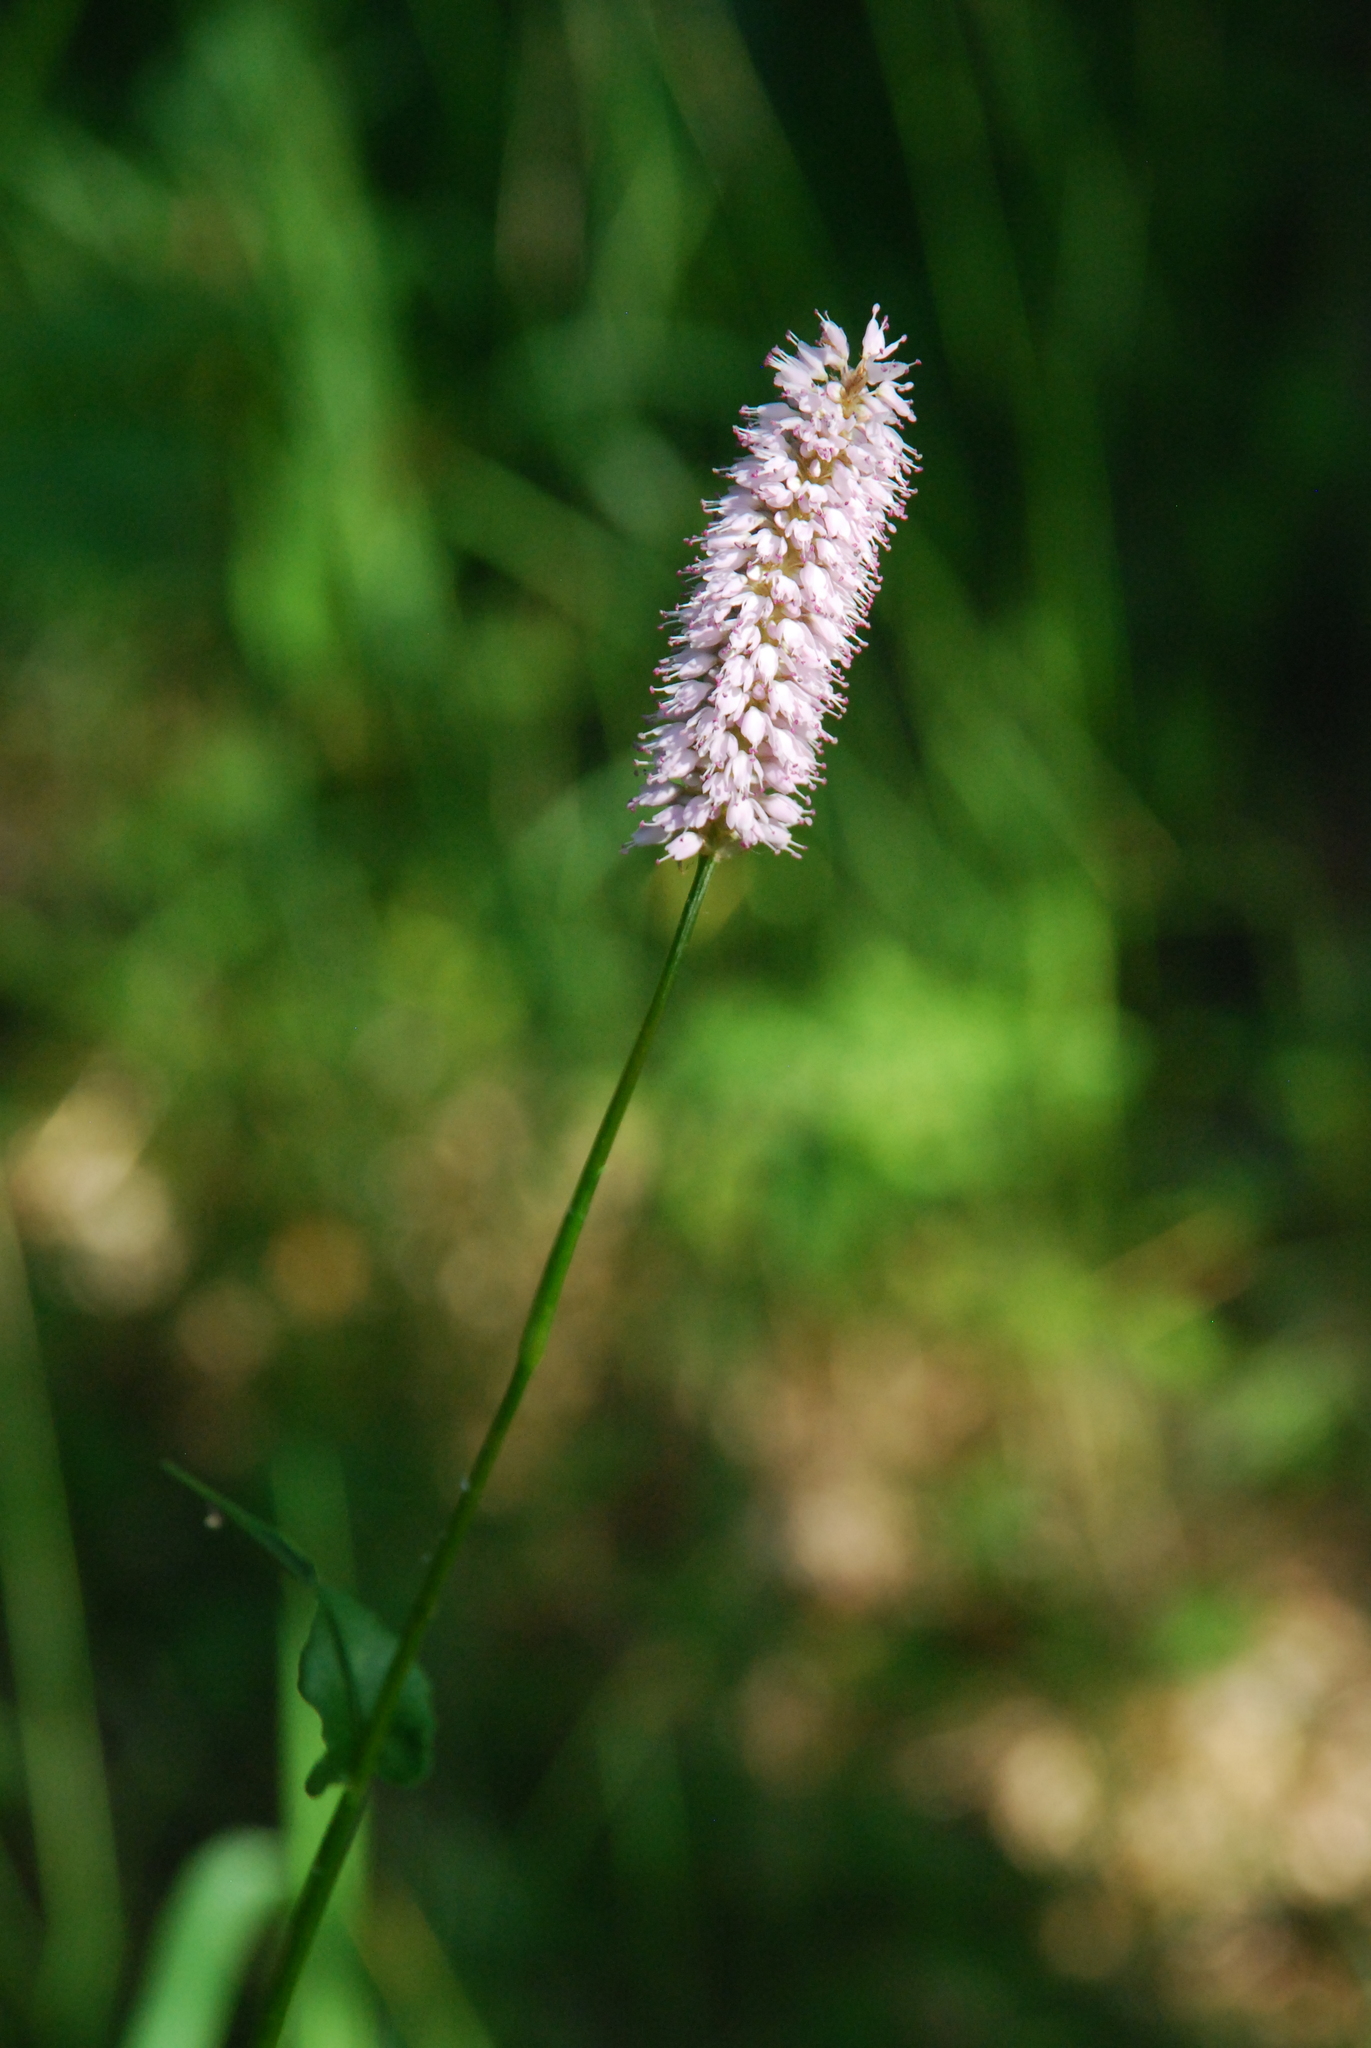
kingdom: Plantae
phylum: Tracheophyta
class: Magnoliopsida
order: Caryophyllales
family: Polygonaceae
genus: Bistorta
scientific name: Bistorta officinalis
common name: Common bistort
